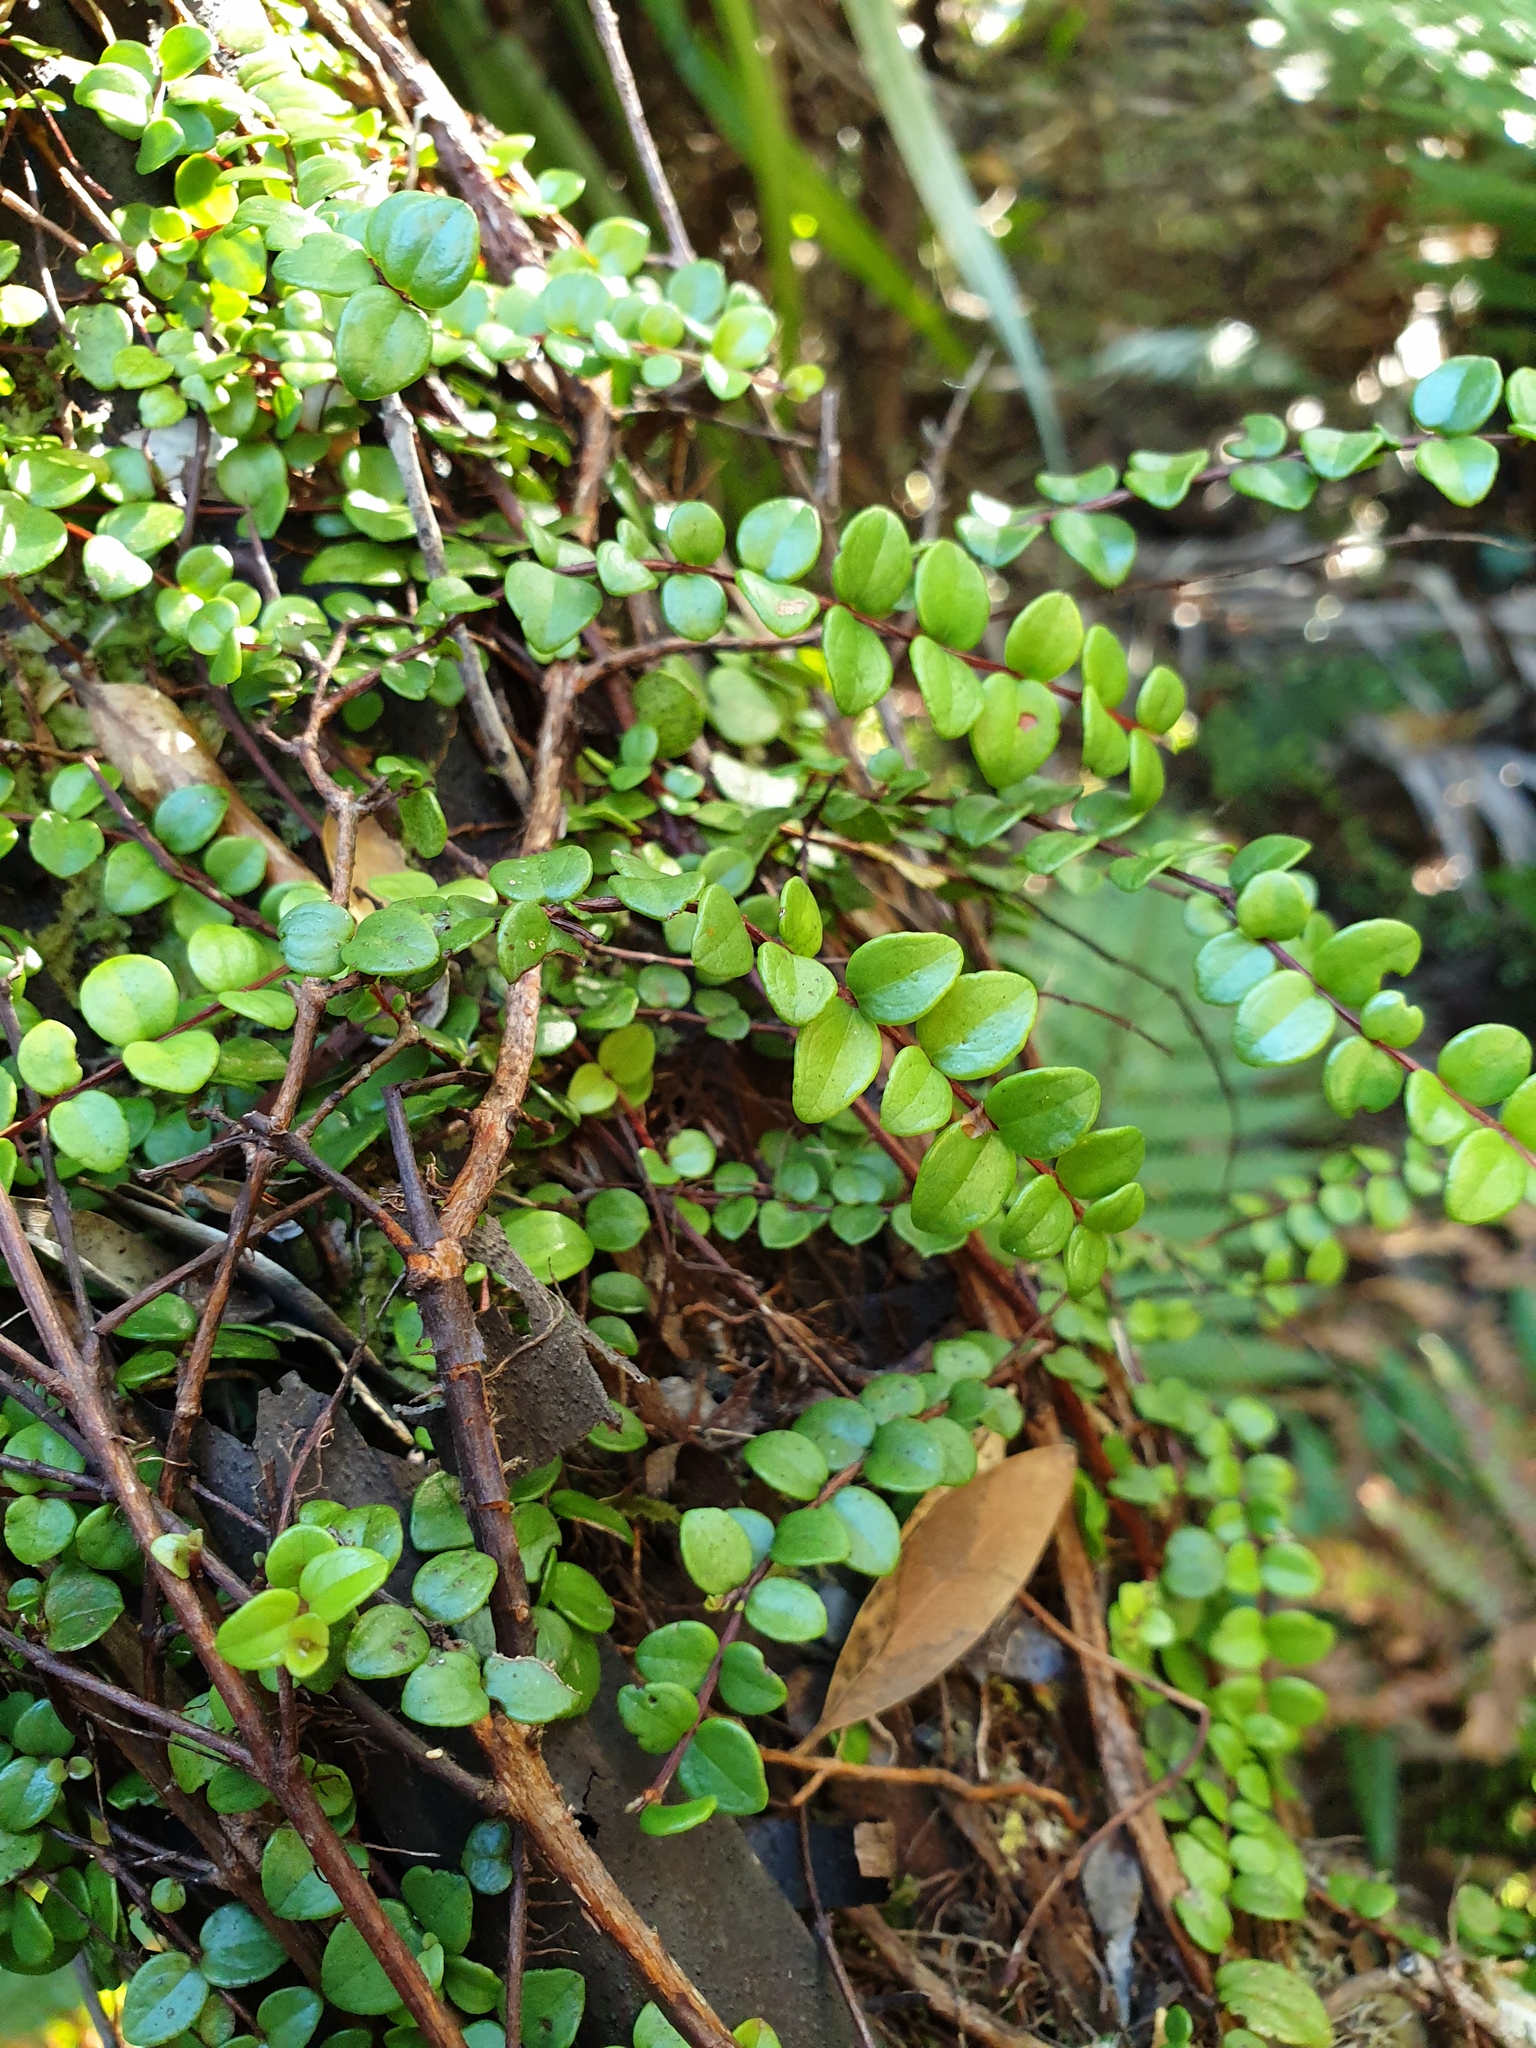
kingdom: Plantae
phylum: Tracheophyta
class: Magnoliopsida
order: Myrtales
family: Myrtaceae
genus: Metrosideros
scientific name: Metrosideros perforata
